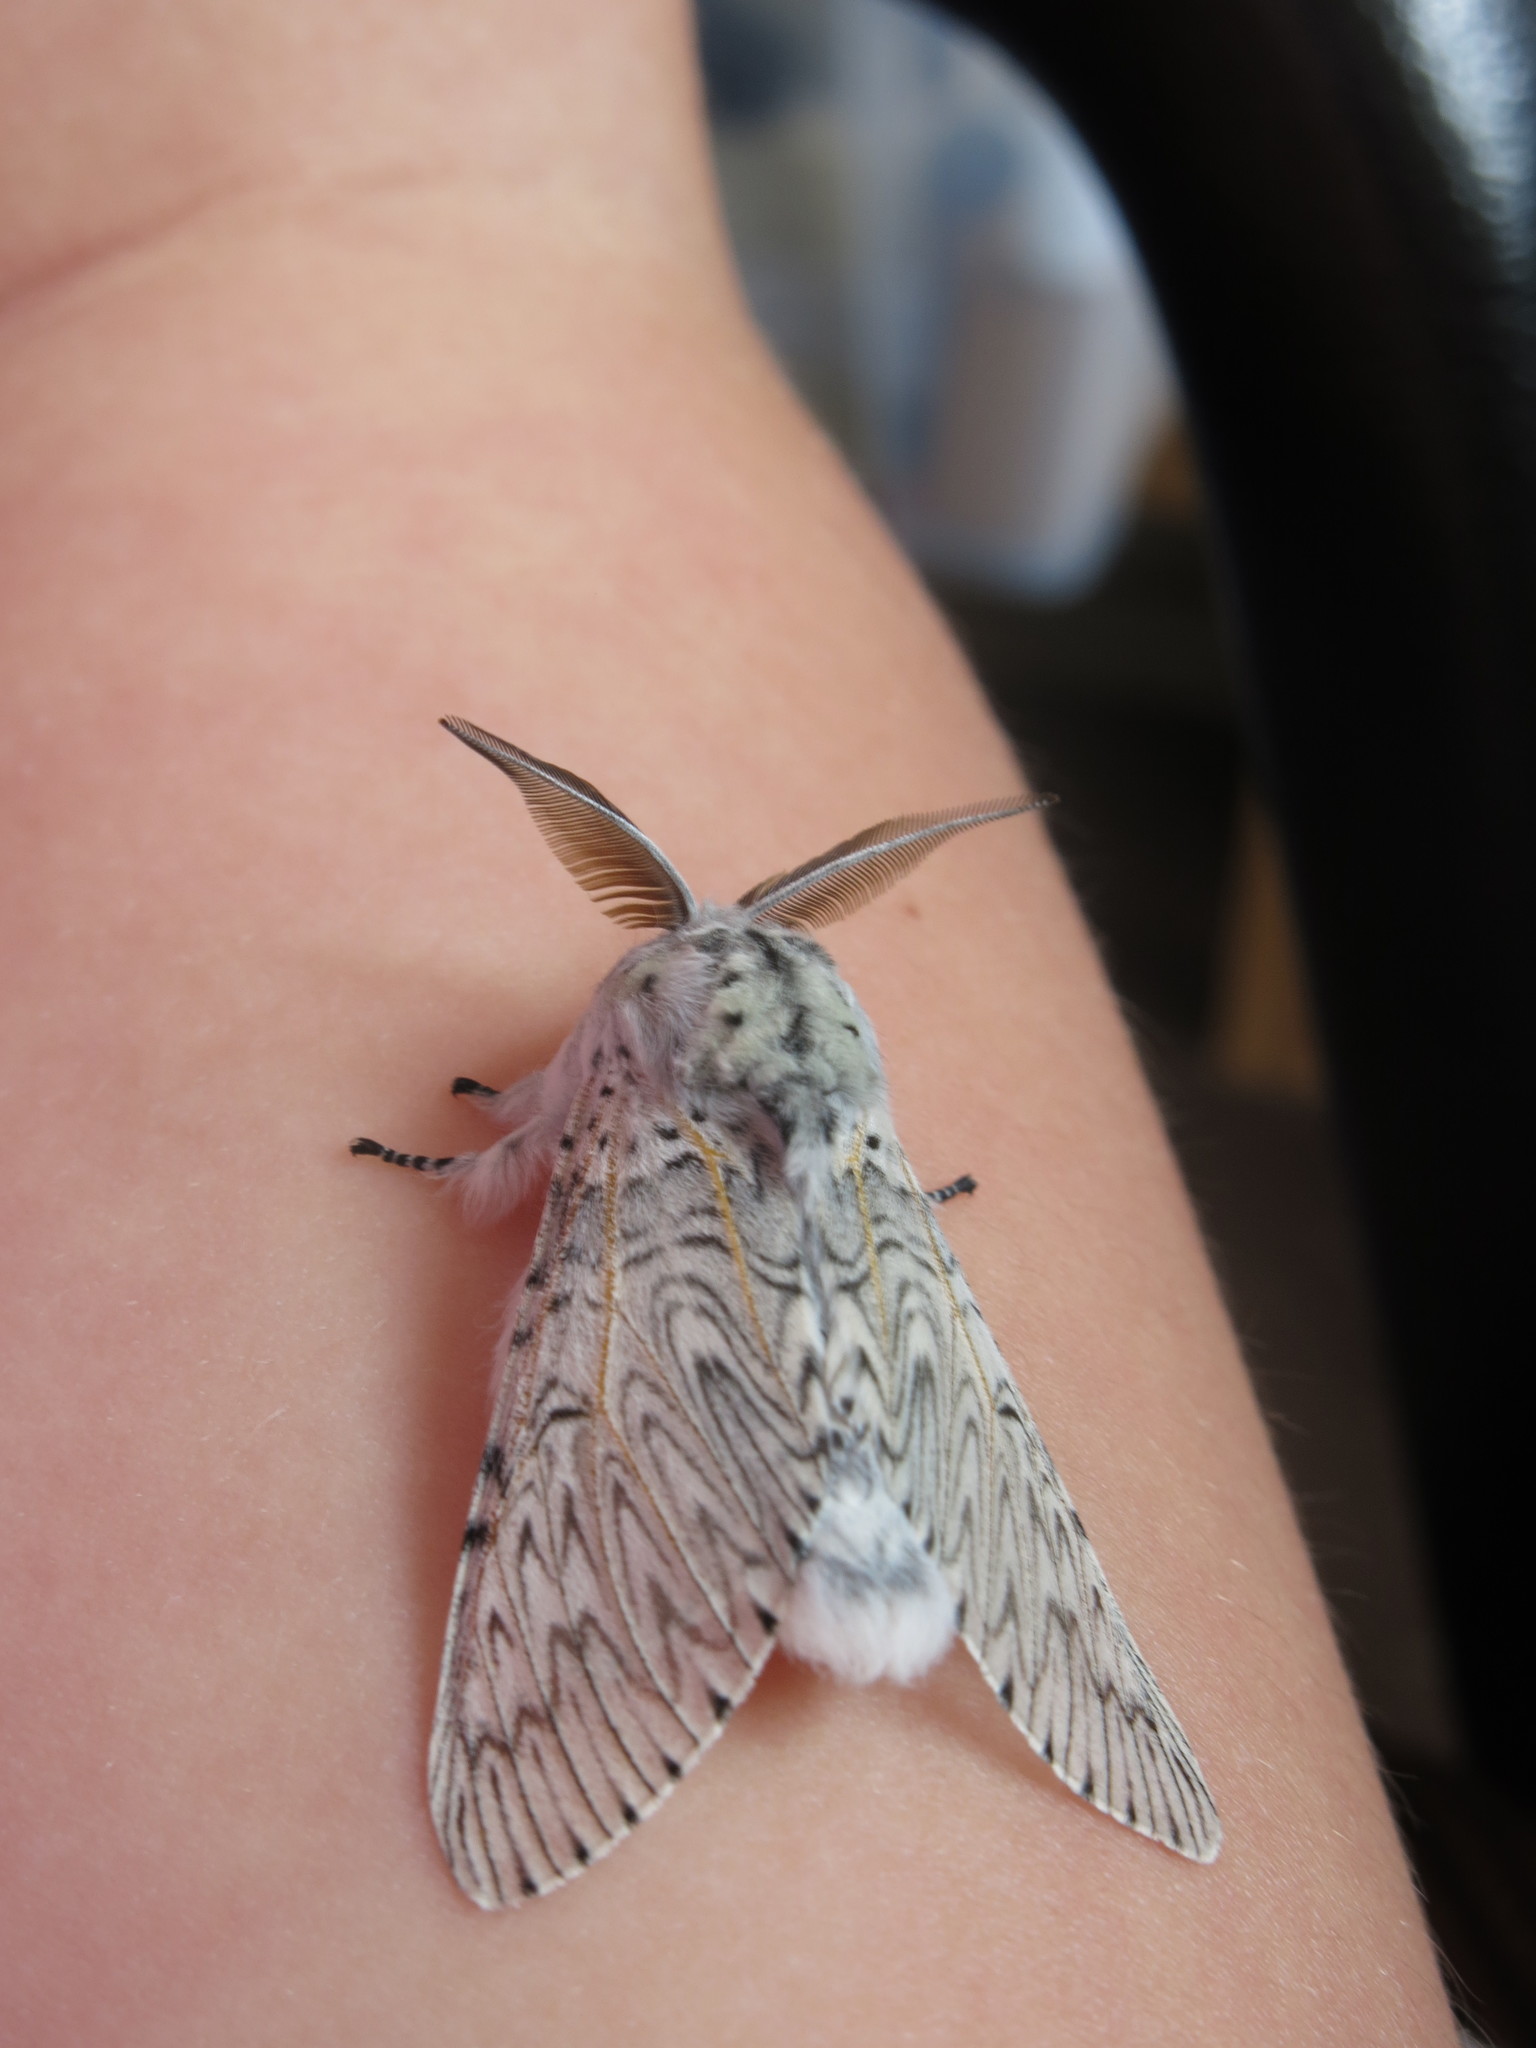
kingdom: Animalia
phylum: Arthropoda
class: Insecta
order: Lepidoptera
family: Notodontidae
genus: Cerura
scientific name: Cerura vinula
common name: Puss moth
